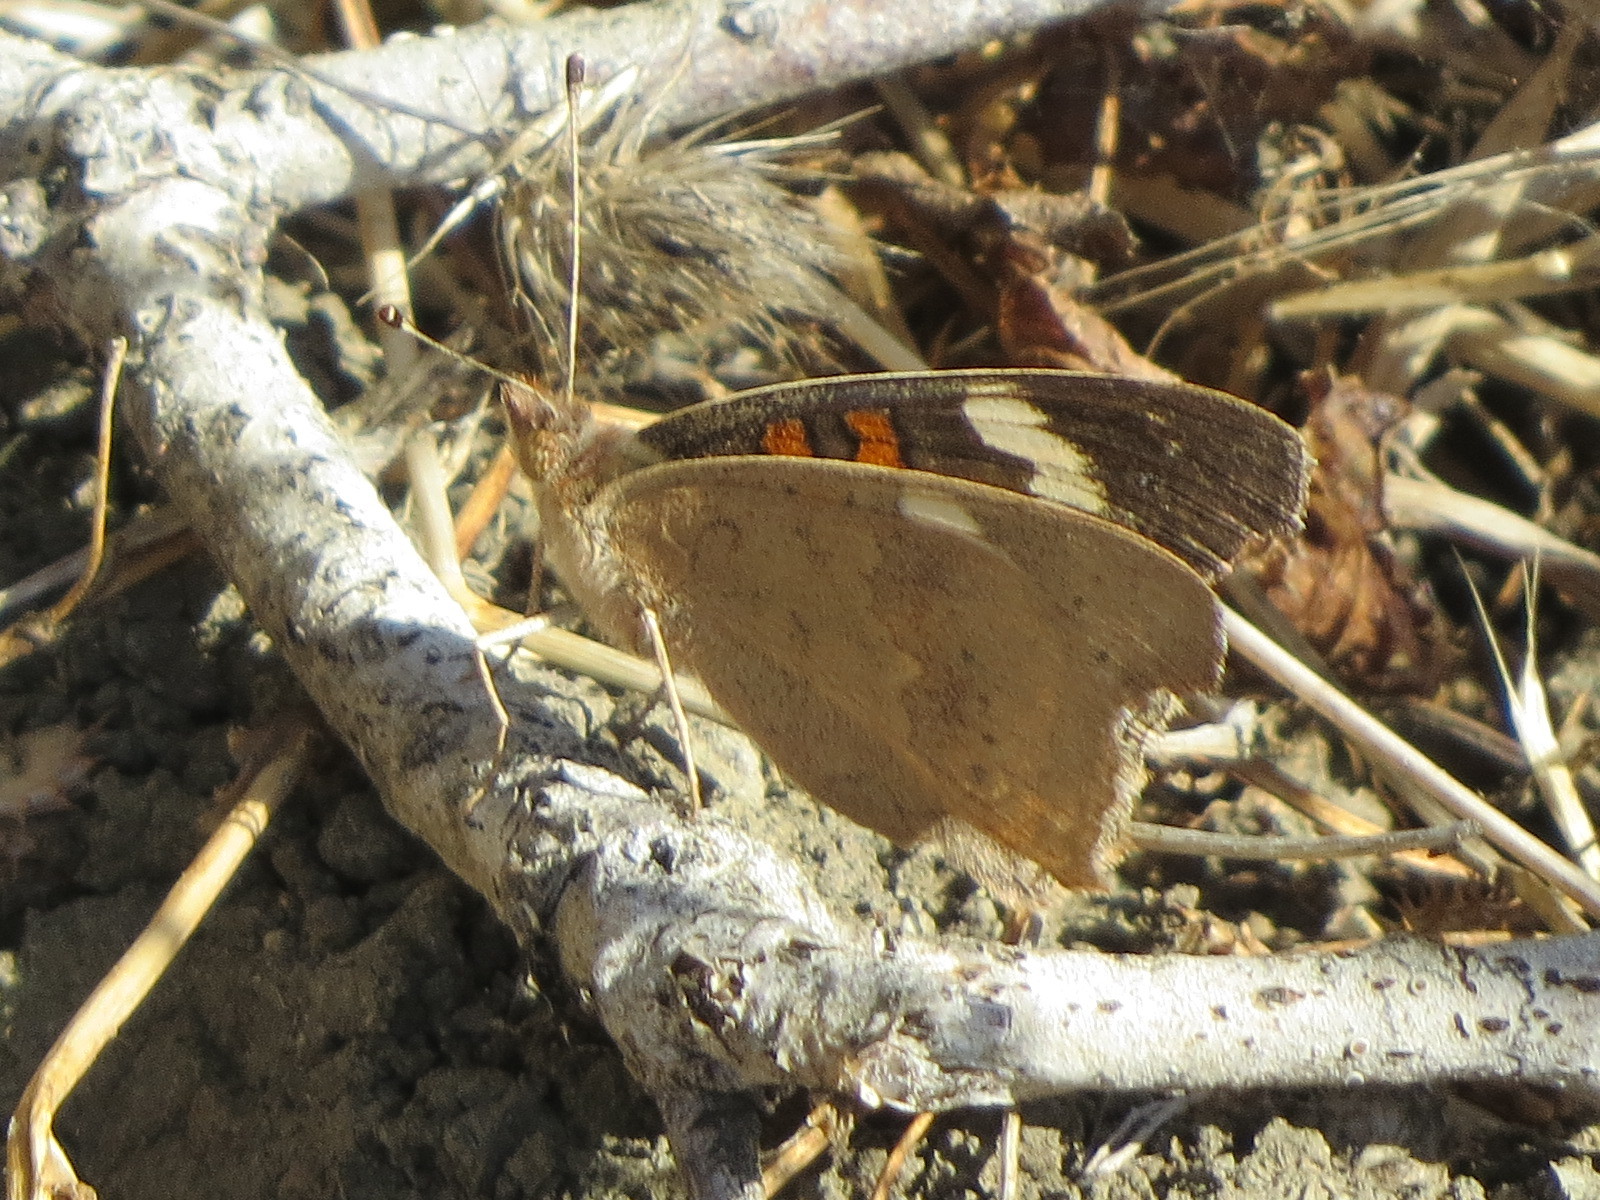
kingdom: Animalia
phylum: Arthropoda
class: Insecta
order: Lepidoptera
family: Nymphalidae
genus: Junonia
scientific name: Junonia grisea
